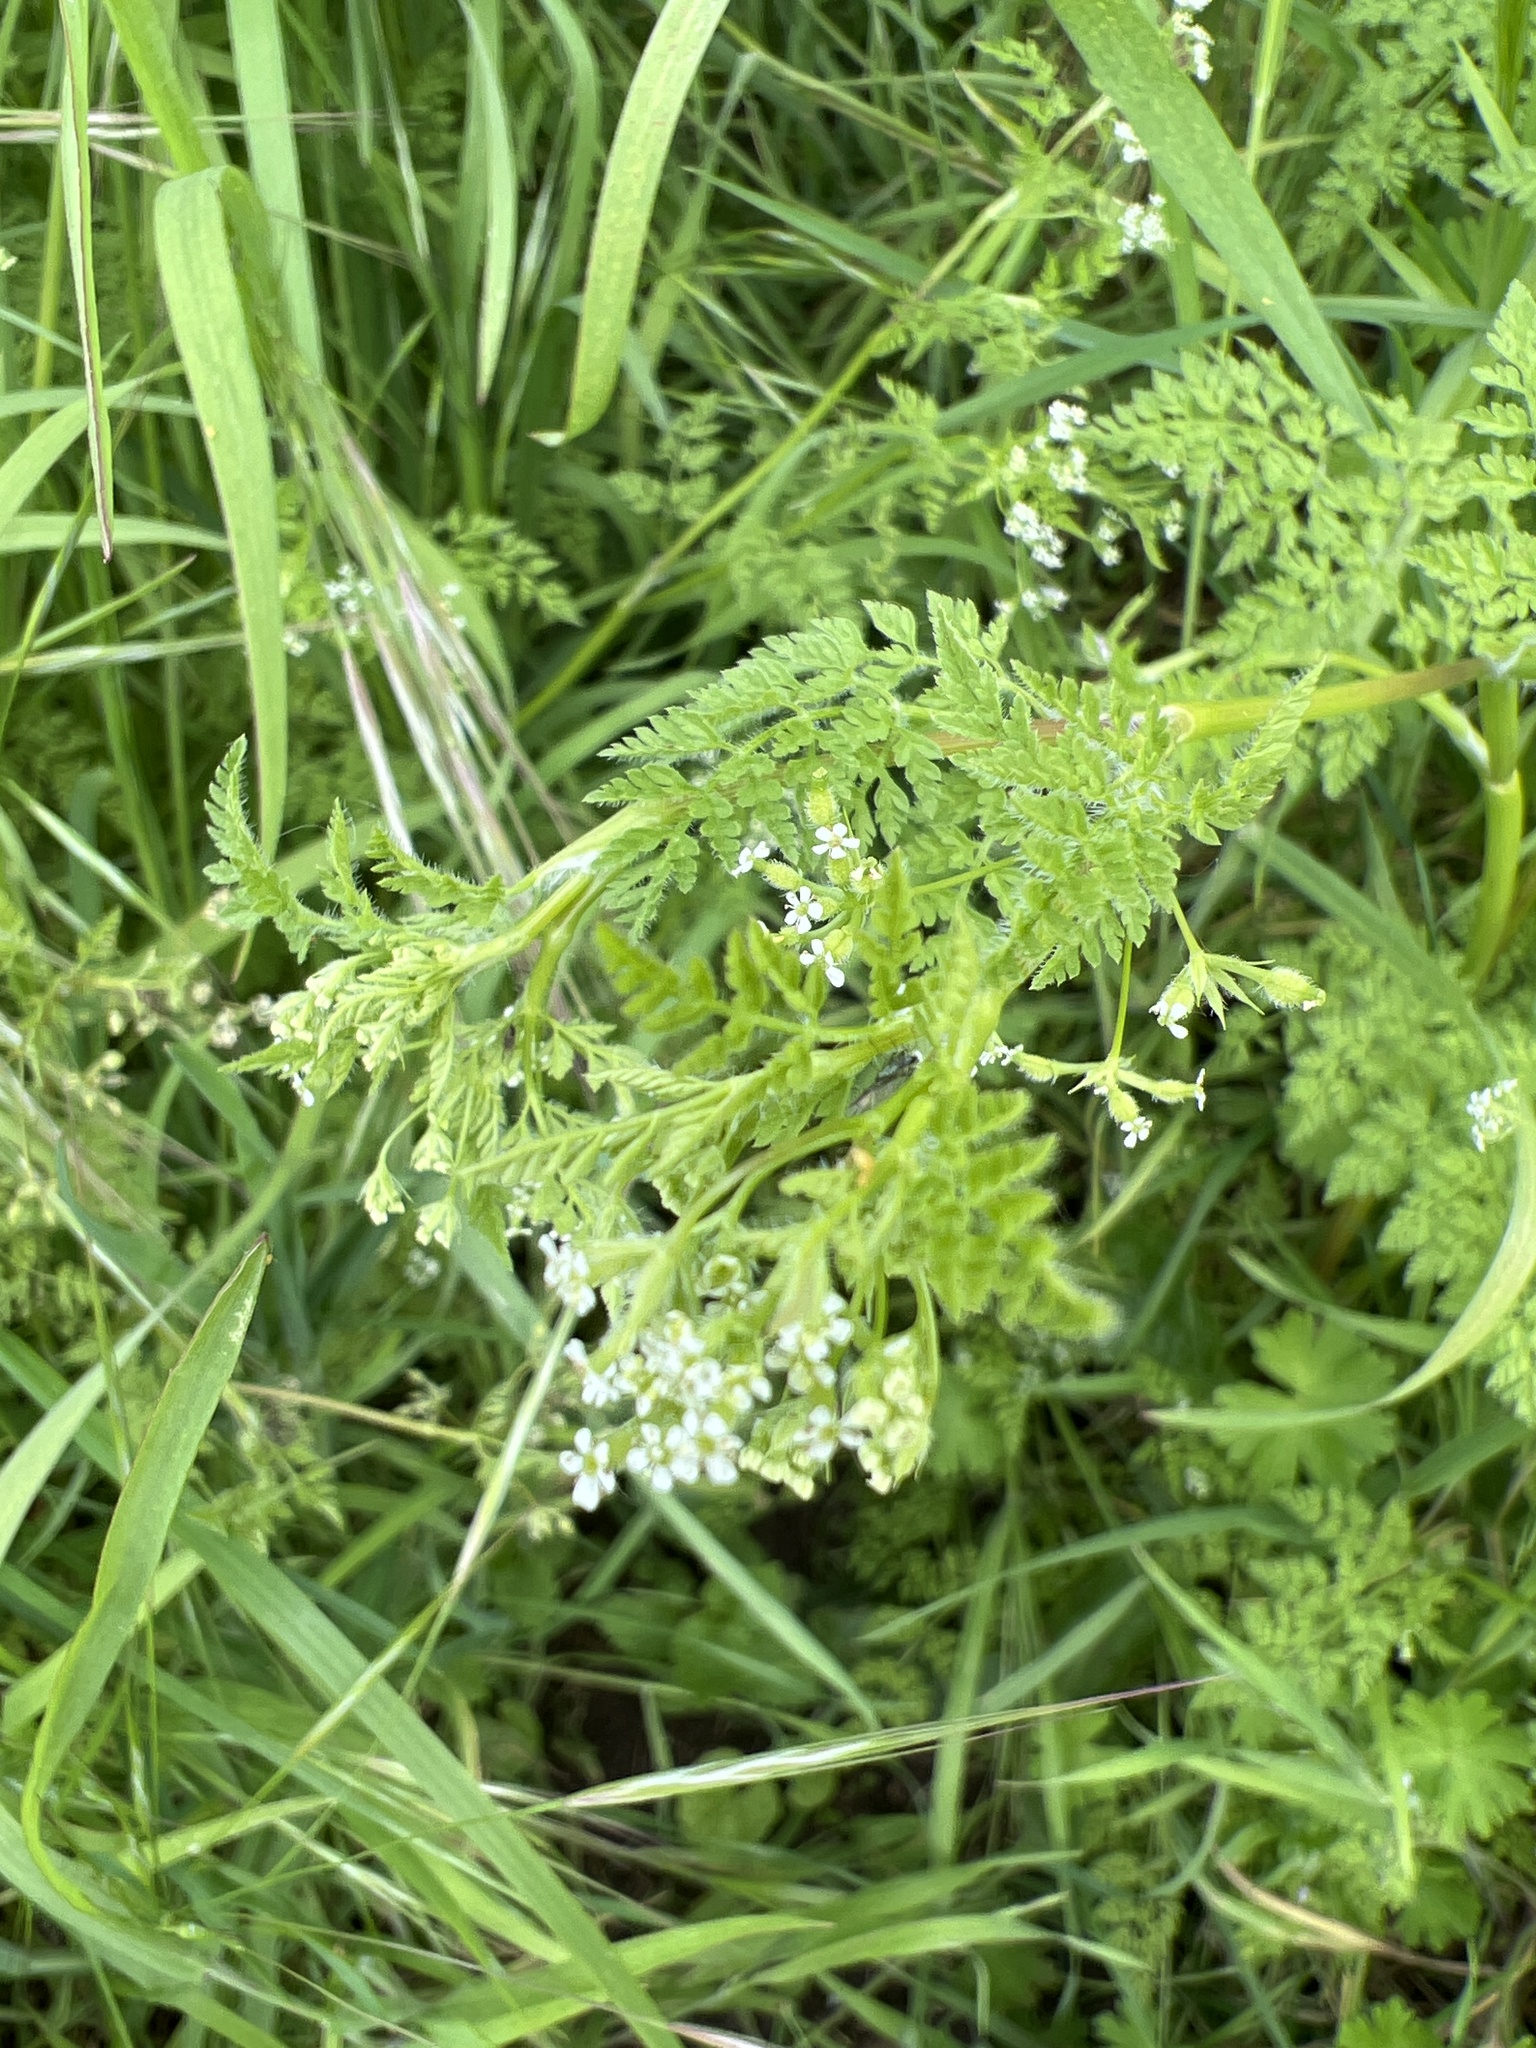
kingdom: Plantae
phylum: Tracheophyta
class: Magnoliopsida
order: Apiales
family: Apiaceae
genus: Anthriscus
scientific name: Anthriscus caucalis
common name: Bur chervil
